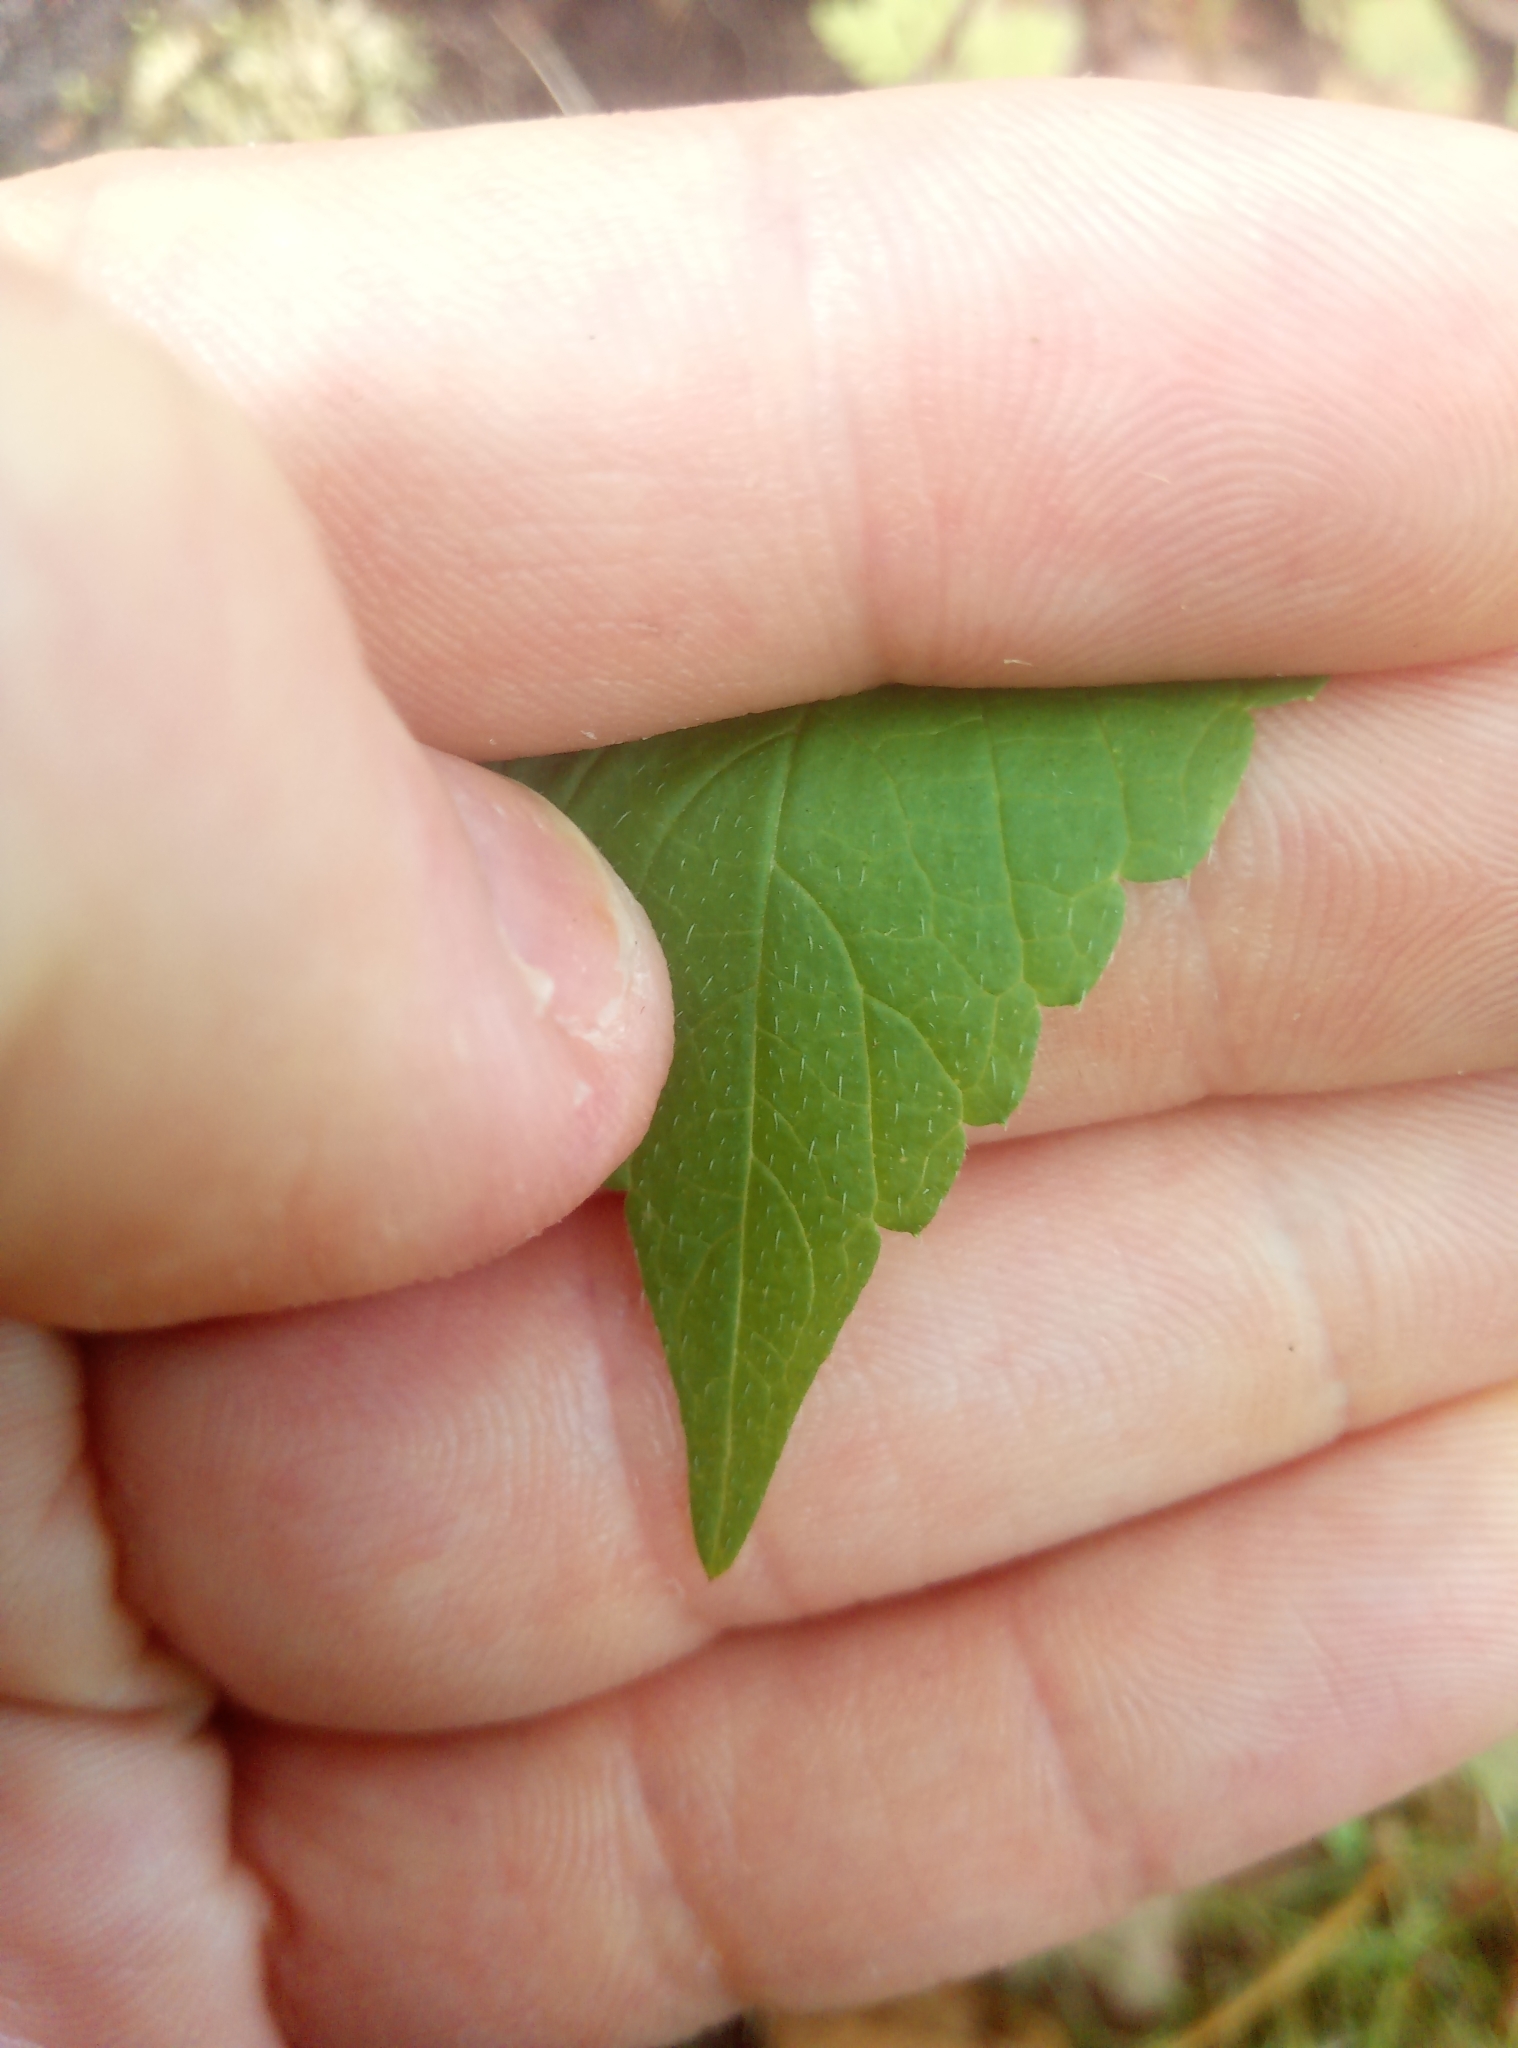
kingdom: Plantae
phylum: Tracheophyta
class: Magnoliopsida
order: Lamiales
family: Lamiaceae
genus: Galeopsis
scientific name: Galeopsis tetrahit
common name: Common hemp-nettle
